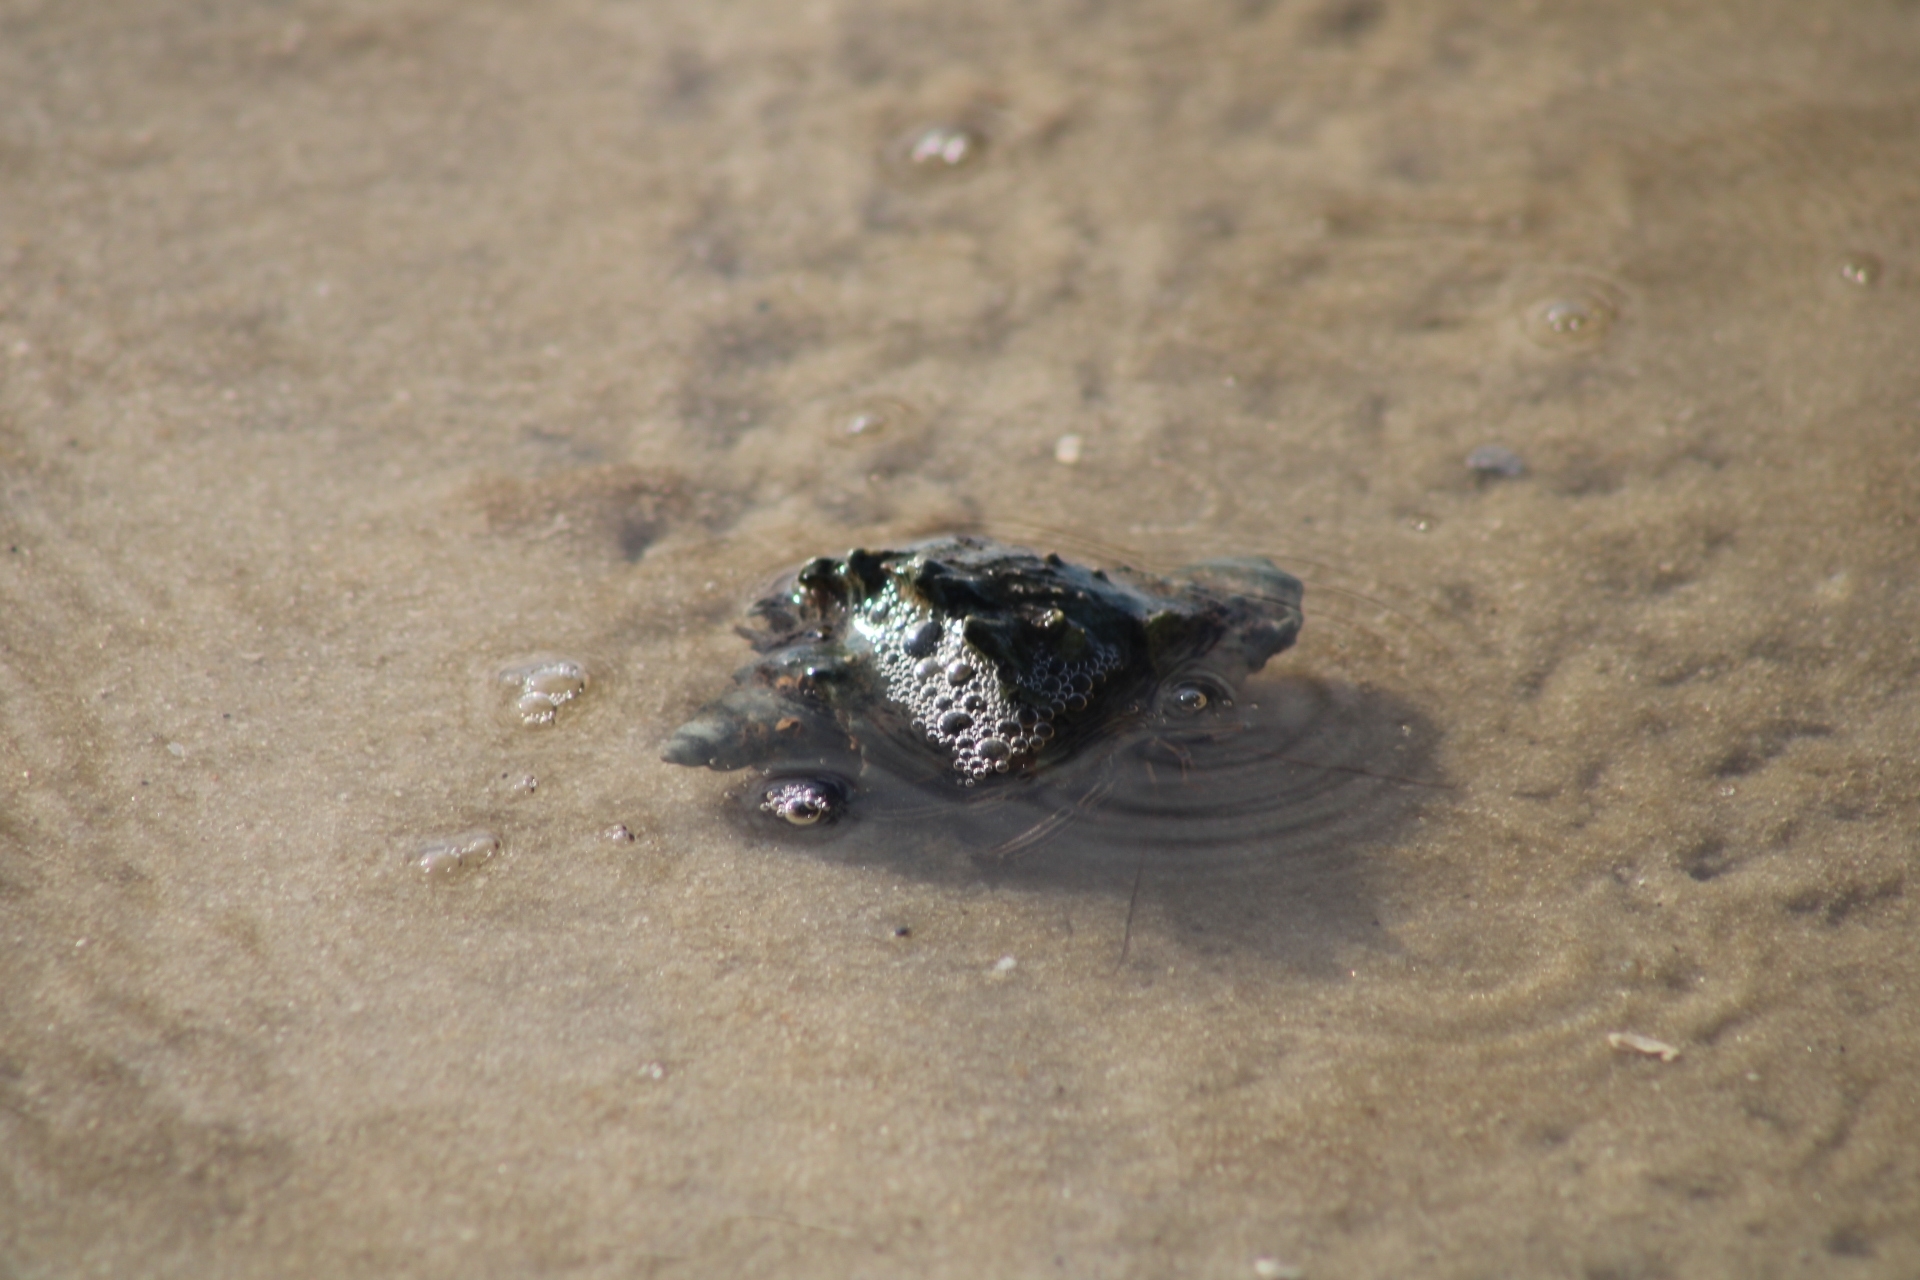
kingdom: Animalia
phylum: Arthropoda
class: Malacostraca
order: Decapoda
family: Diogenidae
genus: Clibanarius
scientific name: Clibanarius vittatus
